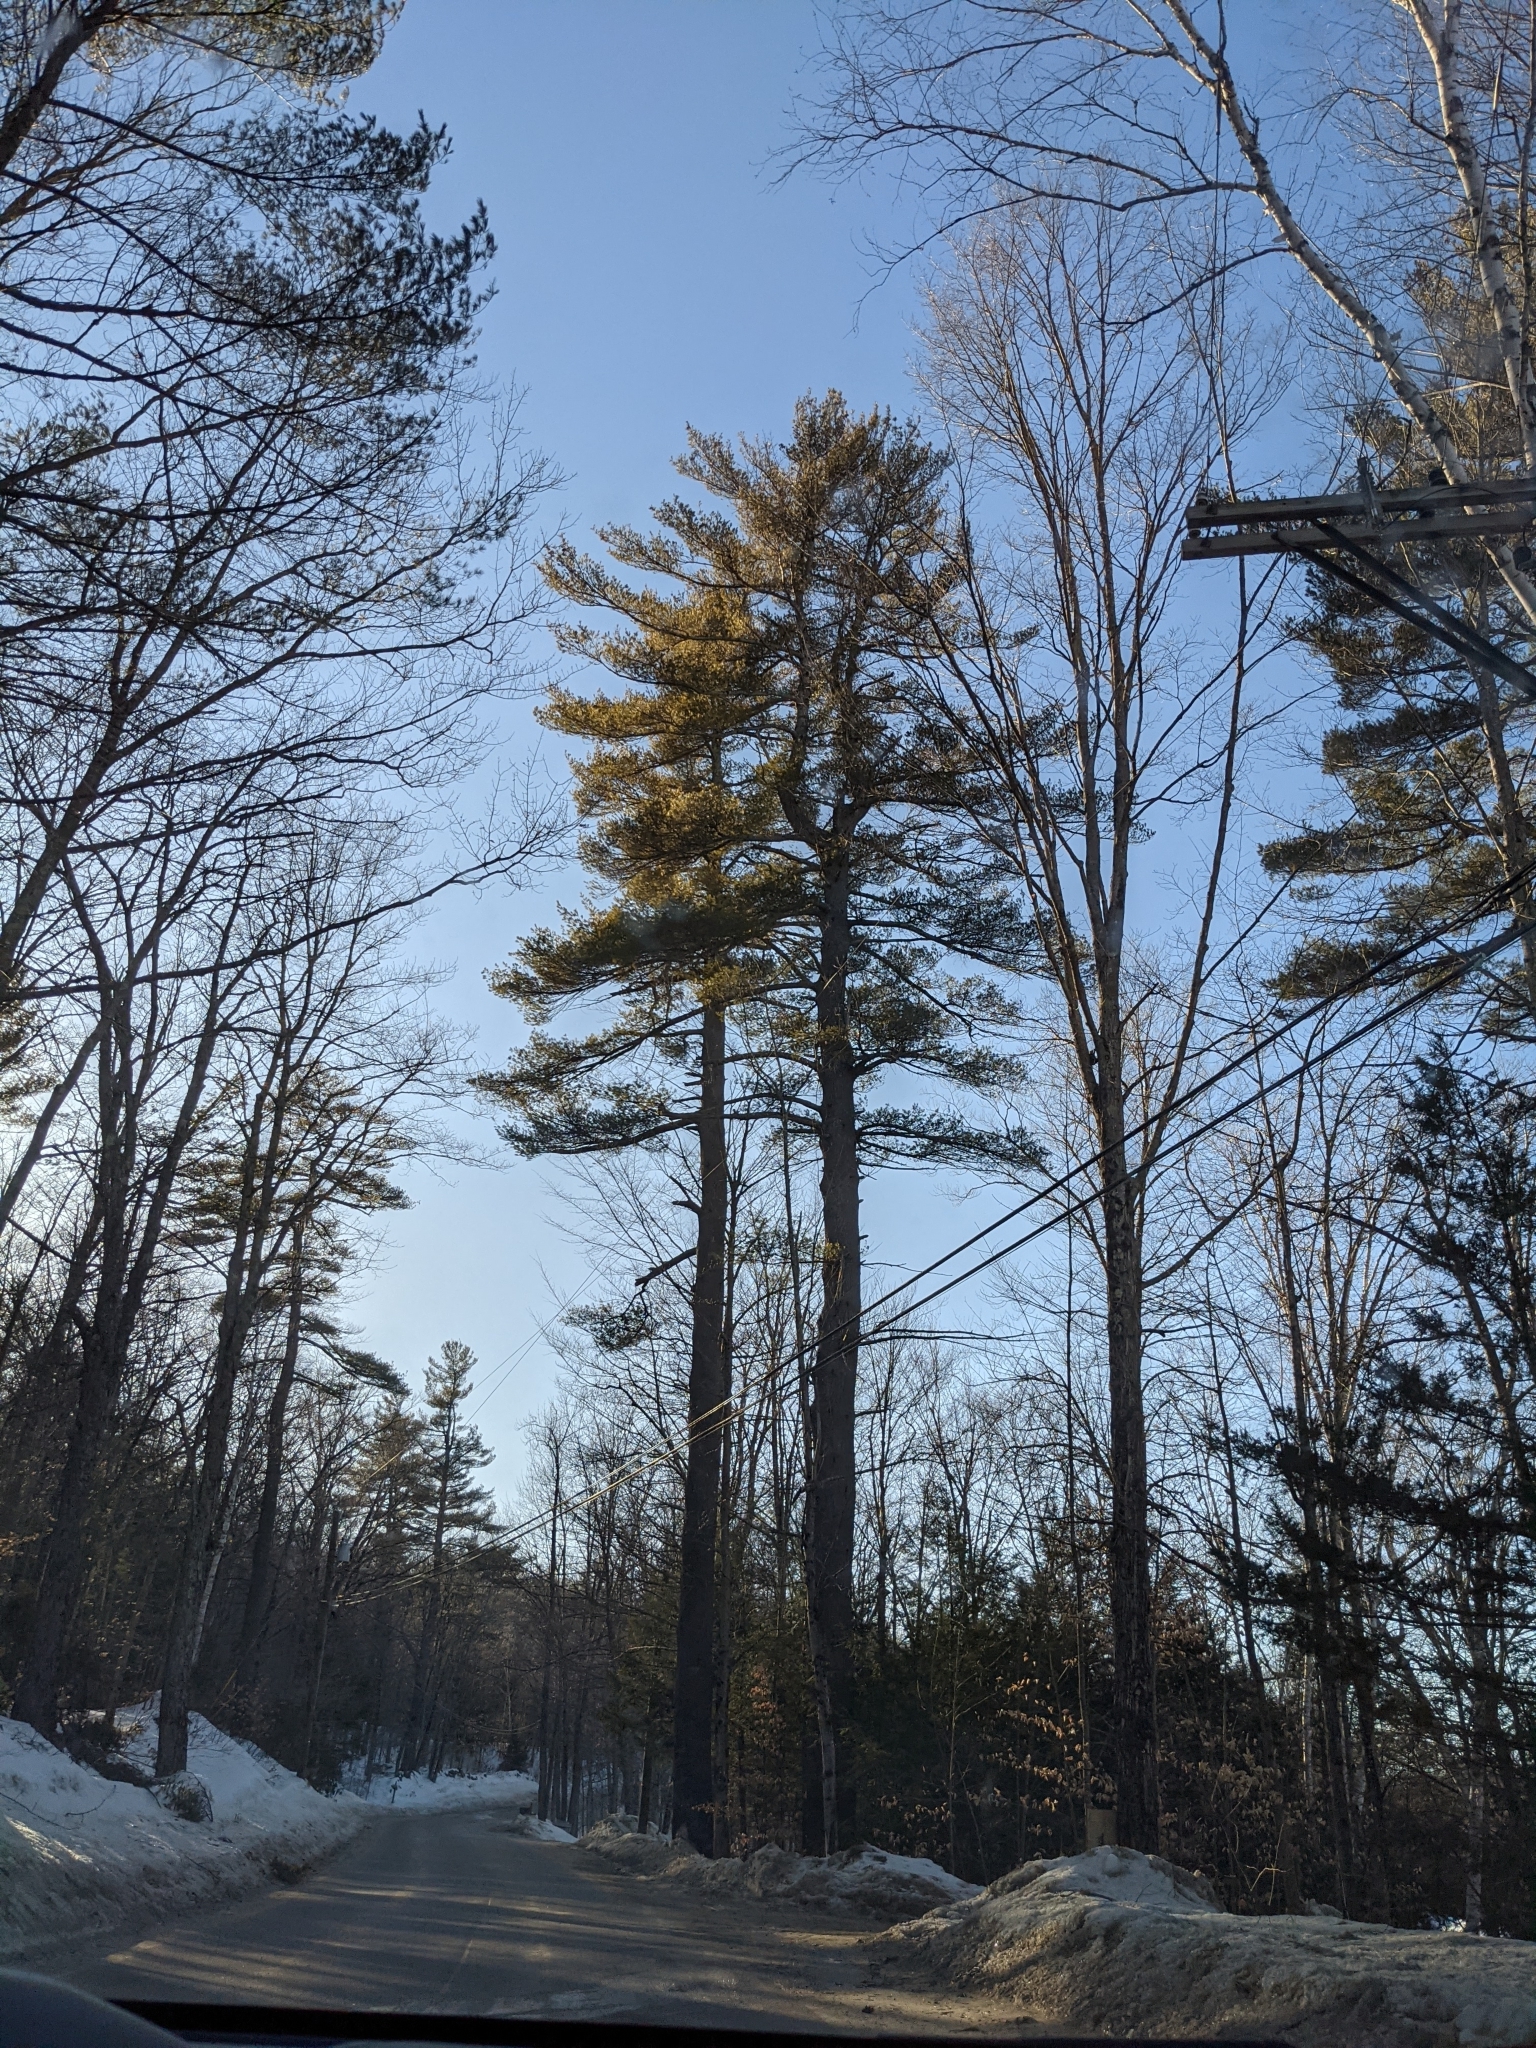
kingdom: Plantae
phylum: Tracheophyta
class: Pinopsida
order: Pinales
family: Pinaceae
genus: Pinus
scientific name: Pinus strobus
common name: Weymouth pine
